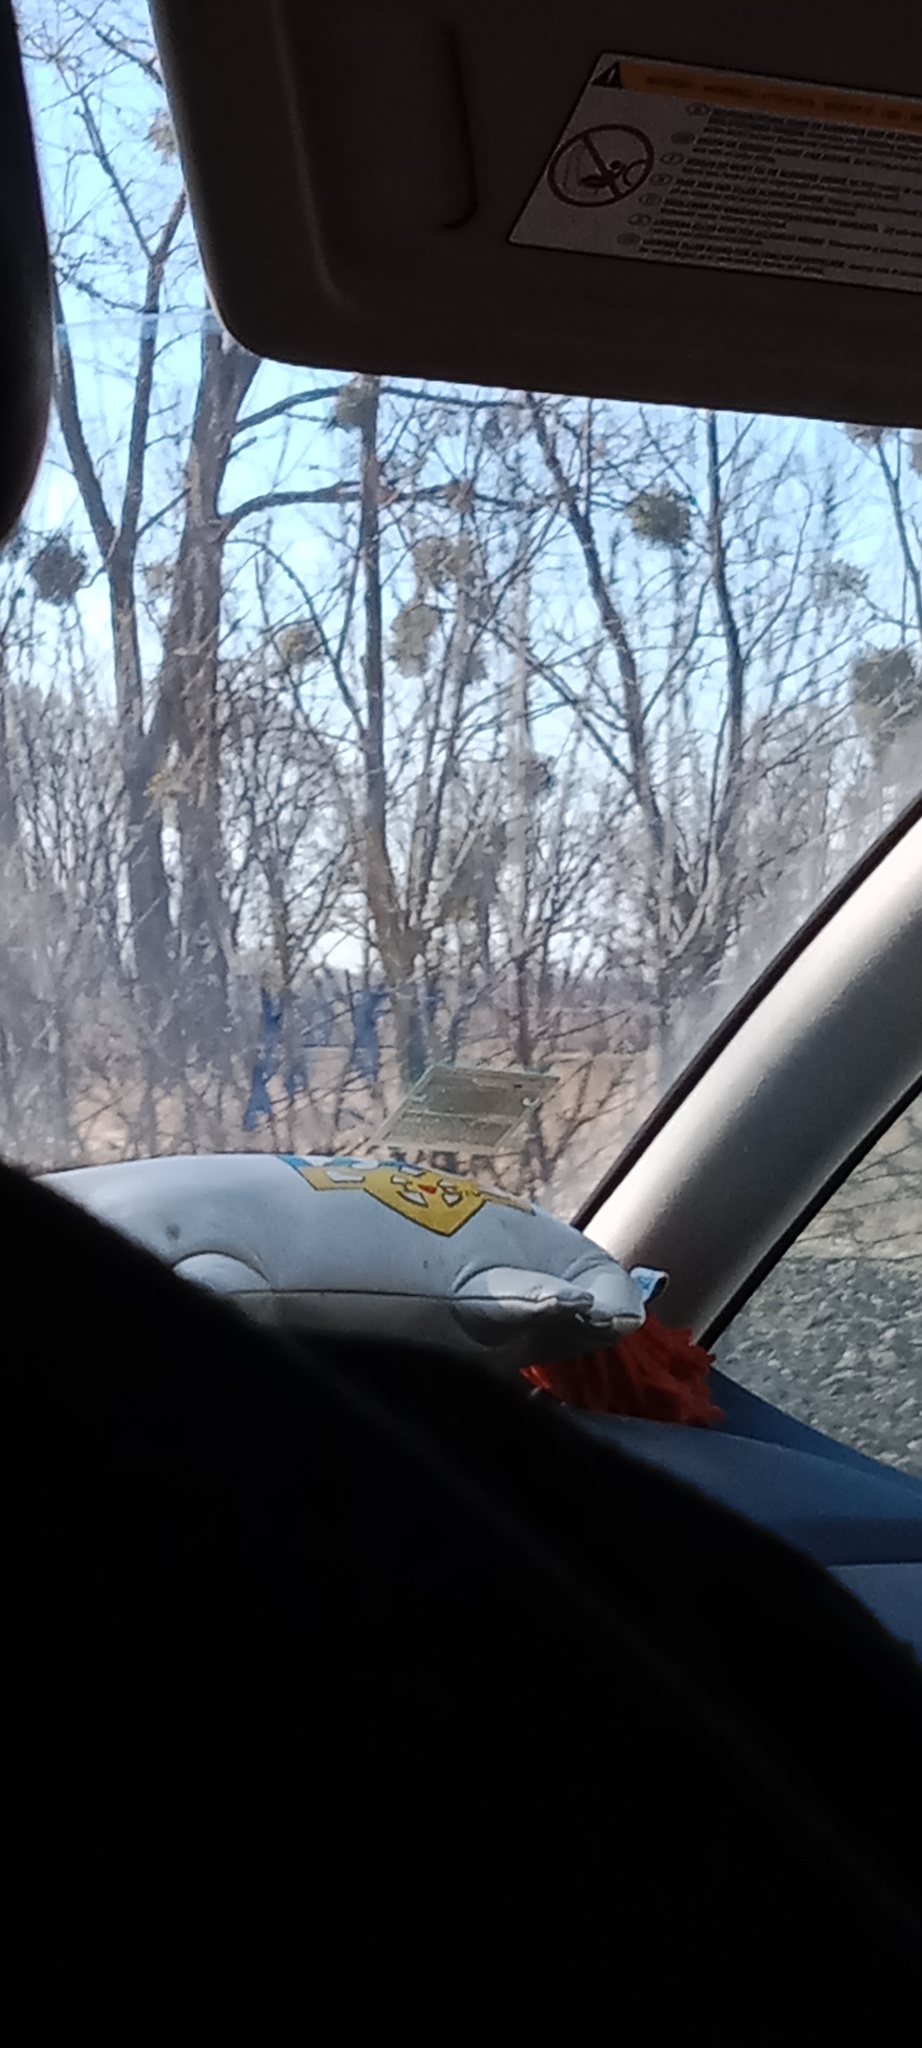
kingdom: Plantae
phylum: Tracheophyta
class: Magnoliopsida
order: Santalales
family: Viscaceae
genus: Viscum
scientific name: Viscum album
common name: Mistletoe
